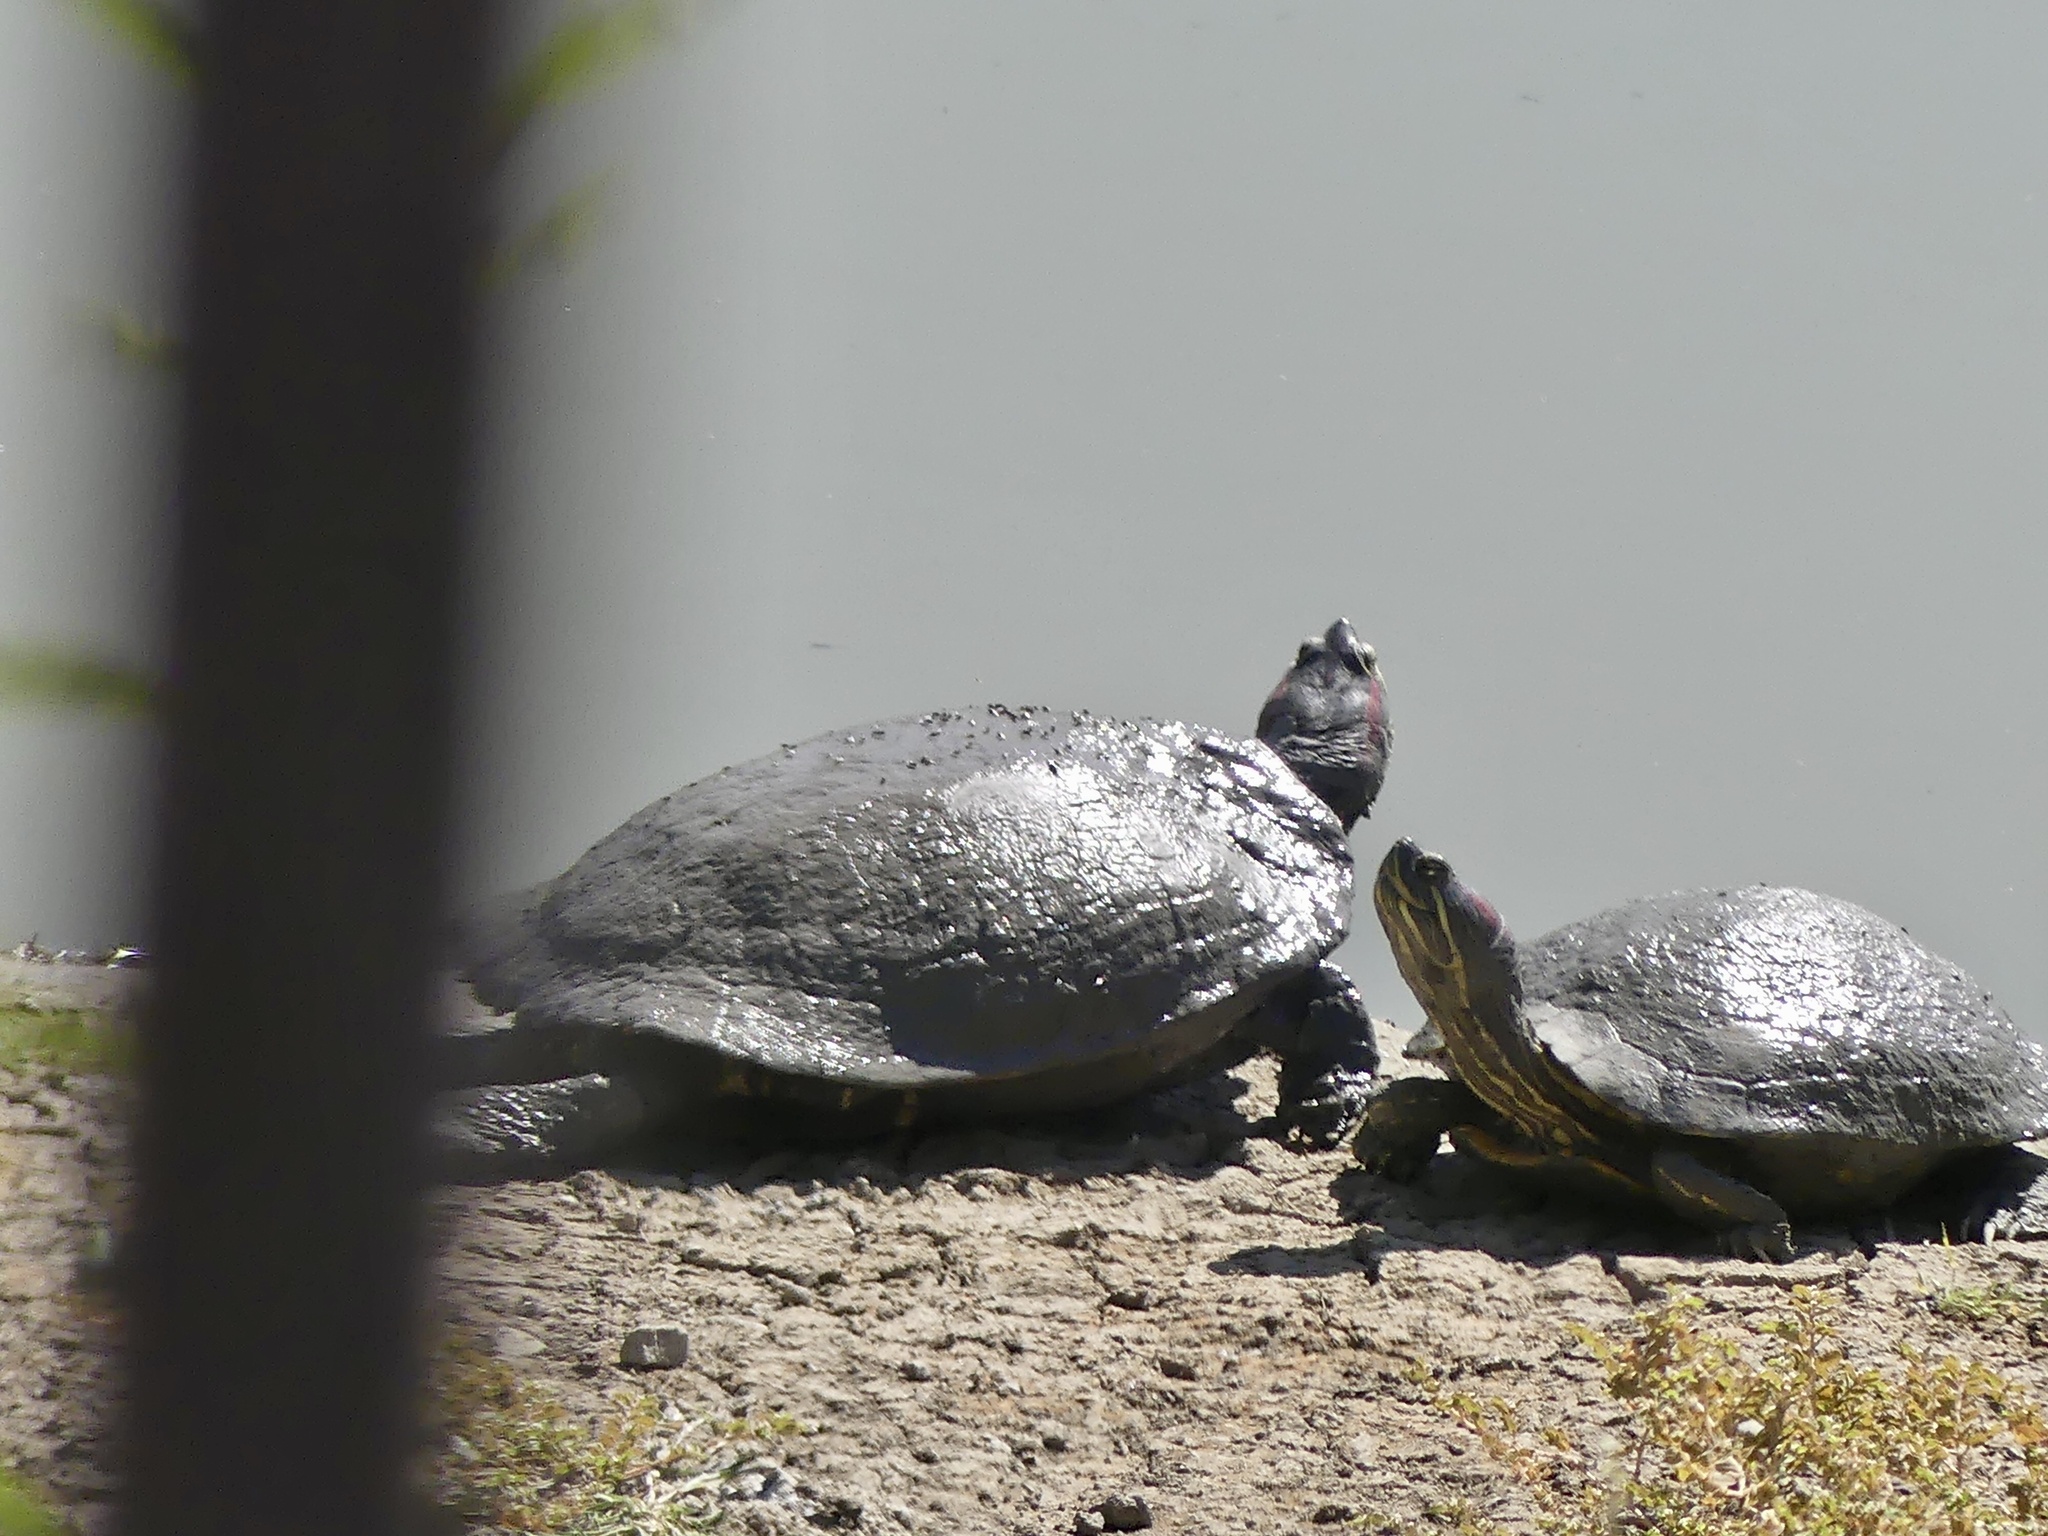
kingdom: Animalia
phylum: Chordata
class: Testudines
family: Emydidae
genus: Trachemys
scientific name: Trachemys scripta
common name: Slider
